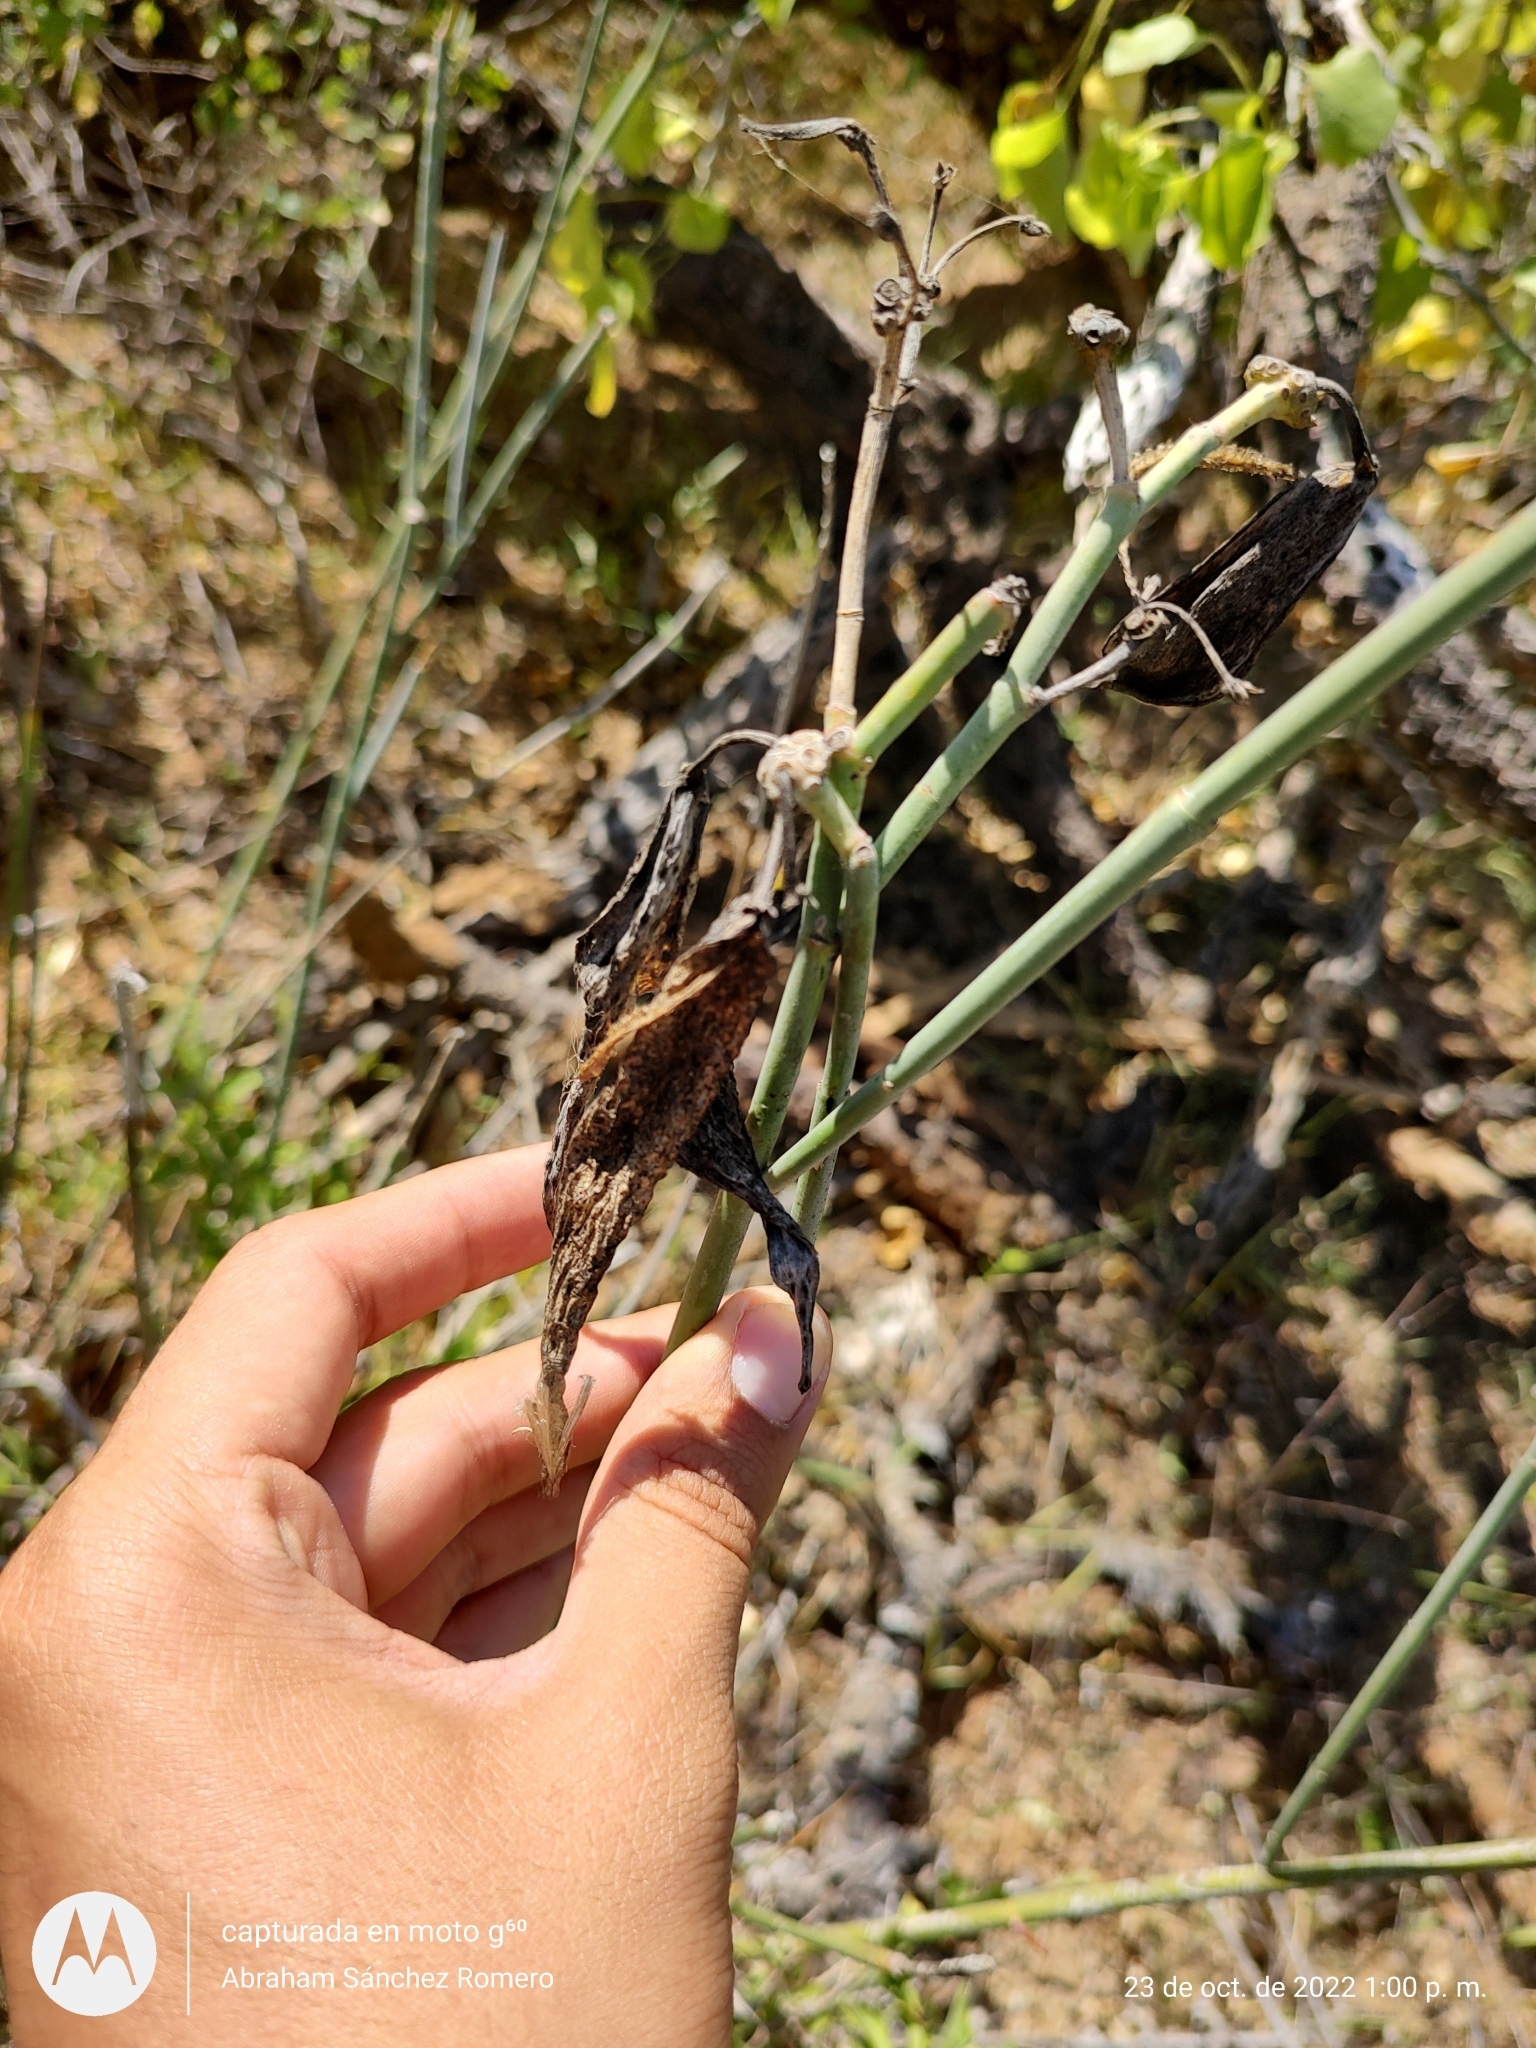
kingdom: Plantae
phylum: Tracheophyta
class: Magnoliopsida
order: Gentianales
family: Apocynaceae
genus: Asclepias
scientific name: Asclepias subulata
